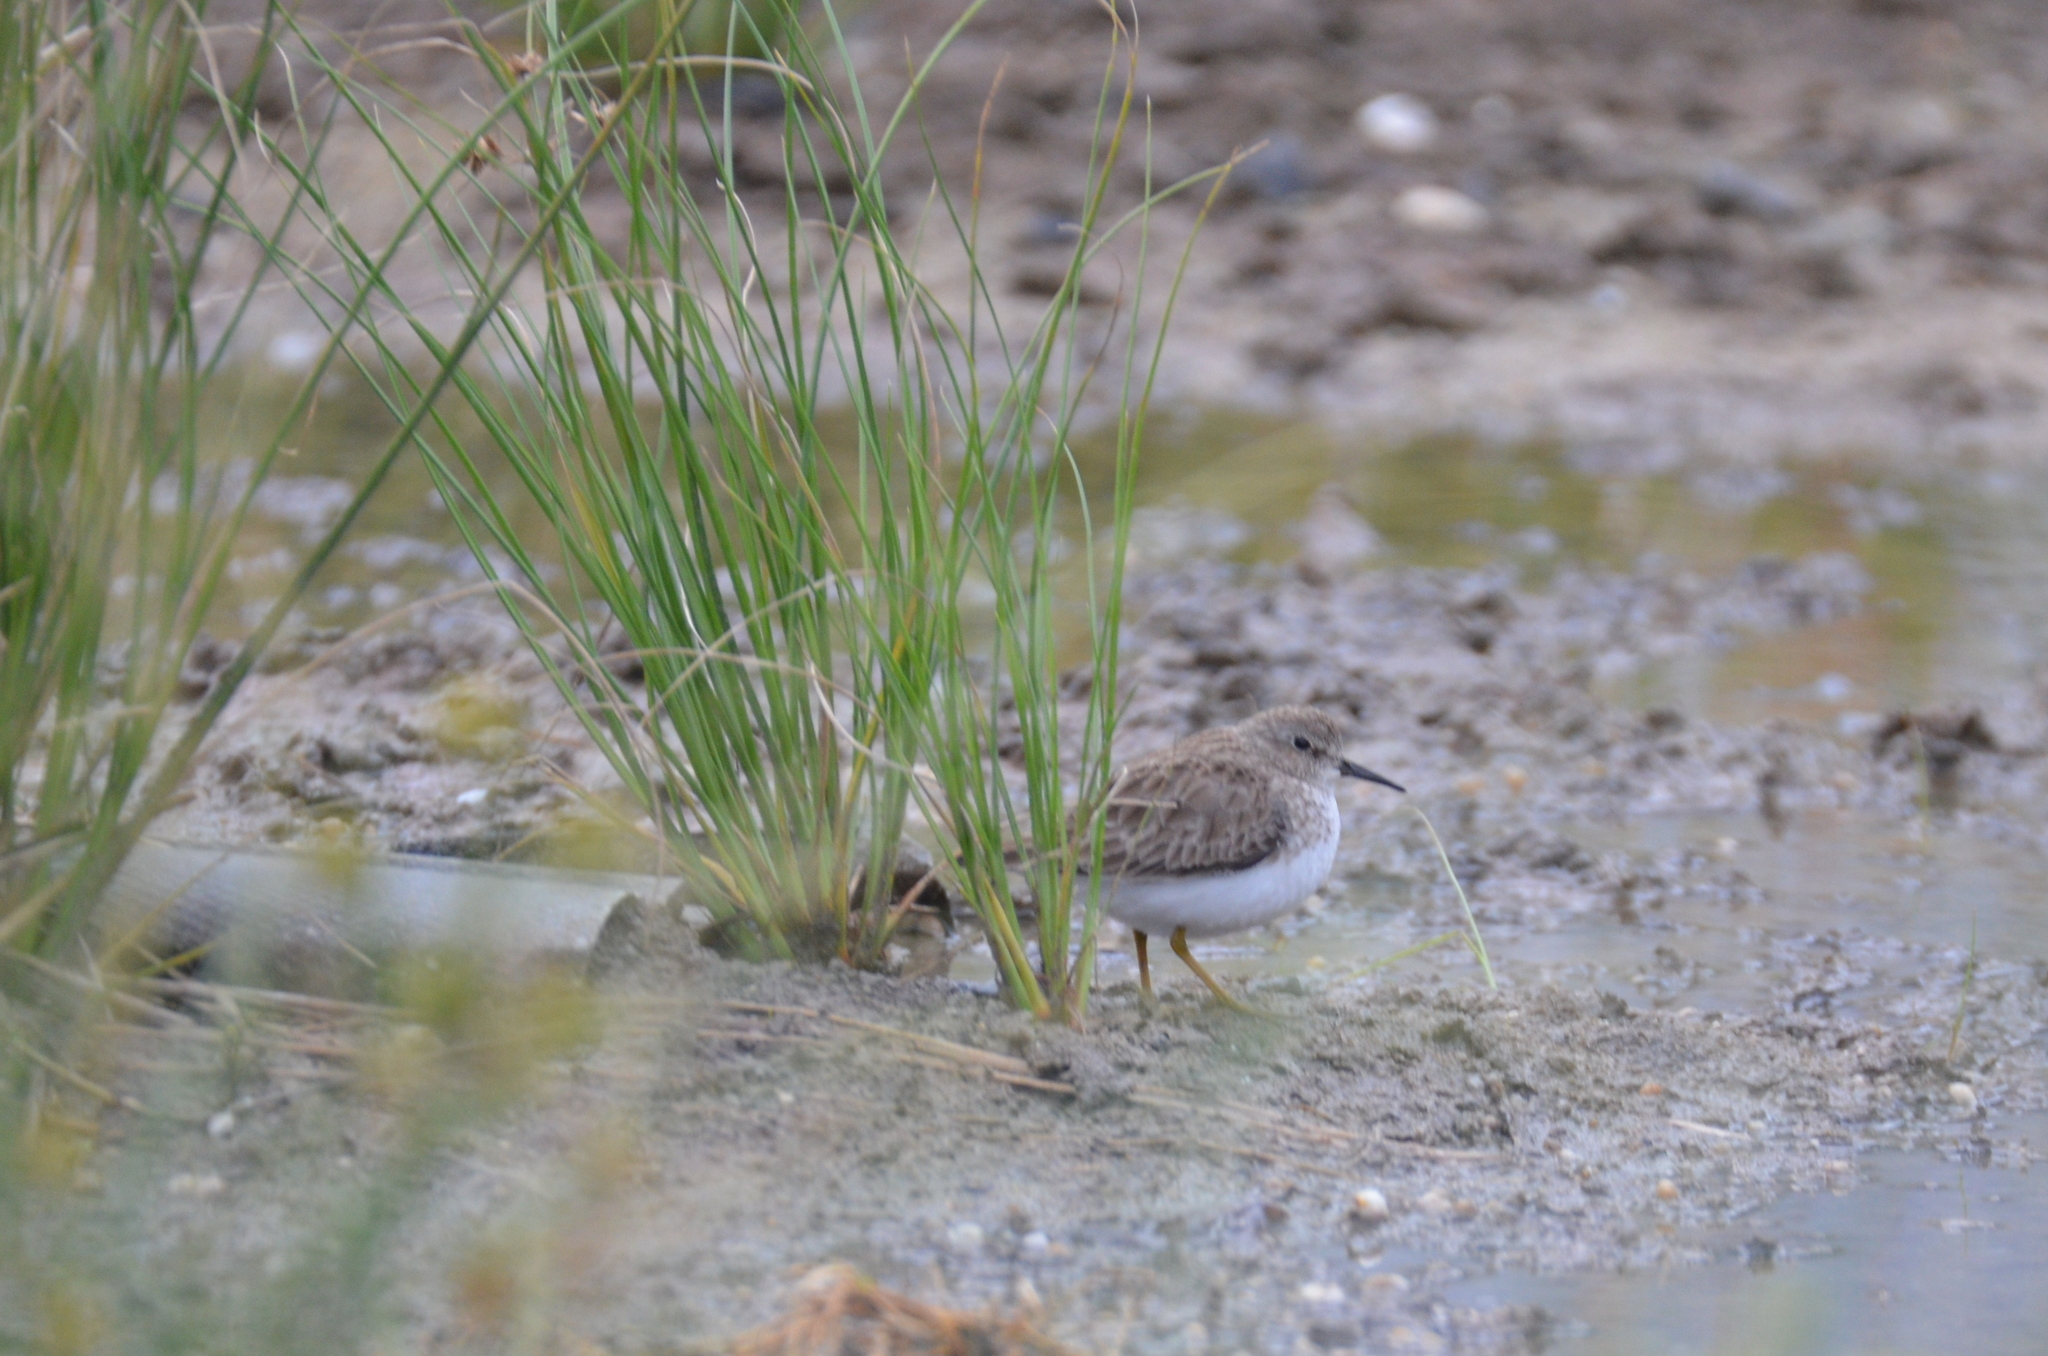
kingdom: Animalia
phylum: Chordata
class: Aves
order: Charadriiformes
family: Scolopacidae
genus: Calidris
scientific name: Calidris minutilla
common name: Least sandpiper
